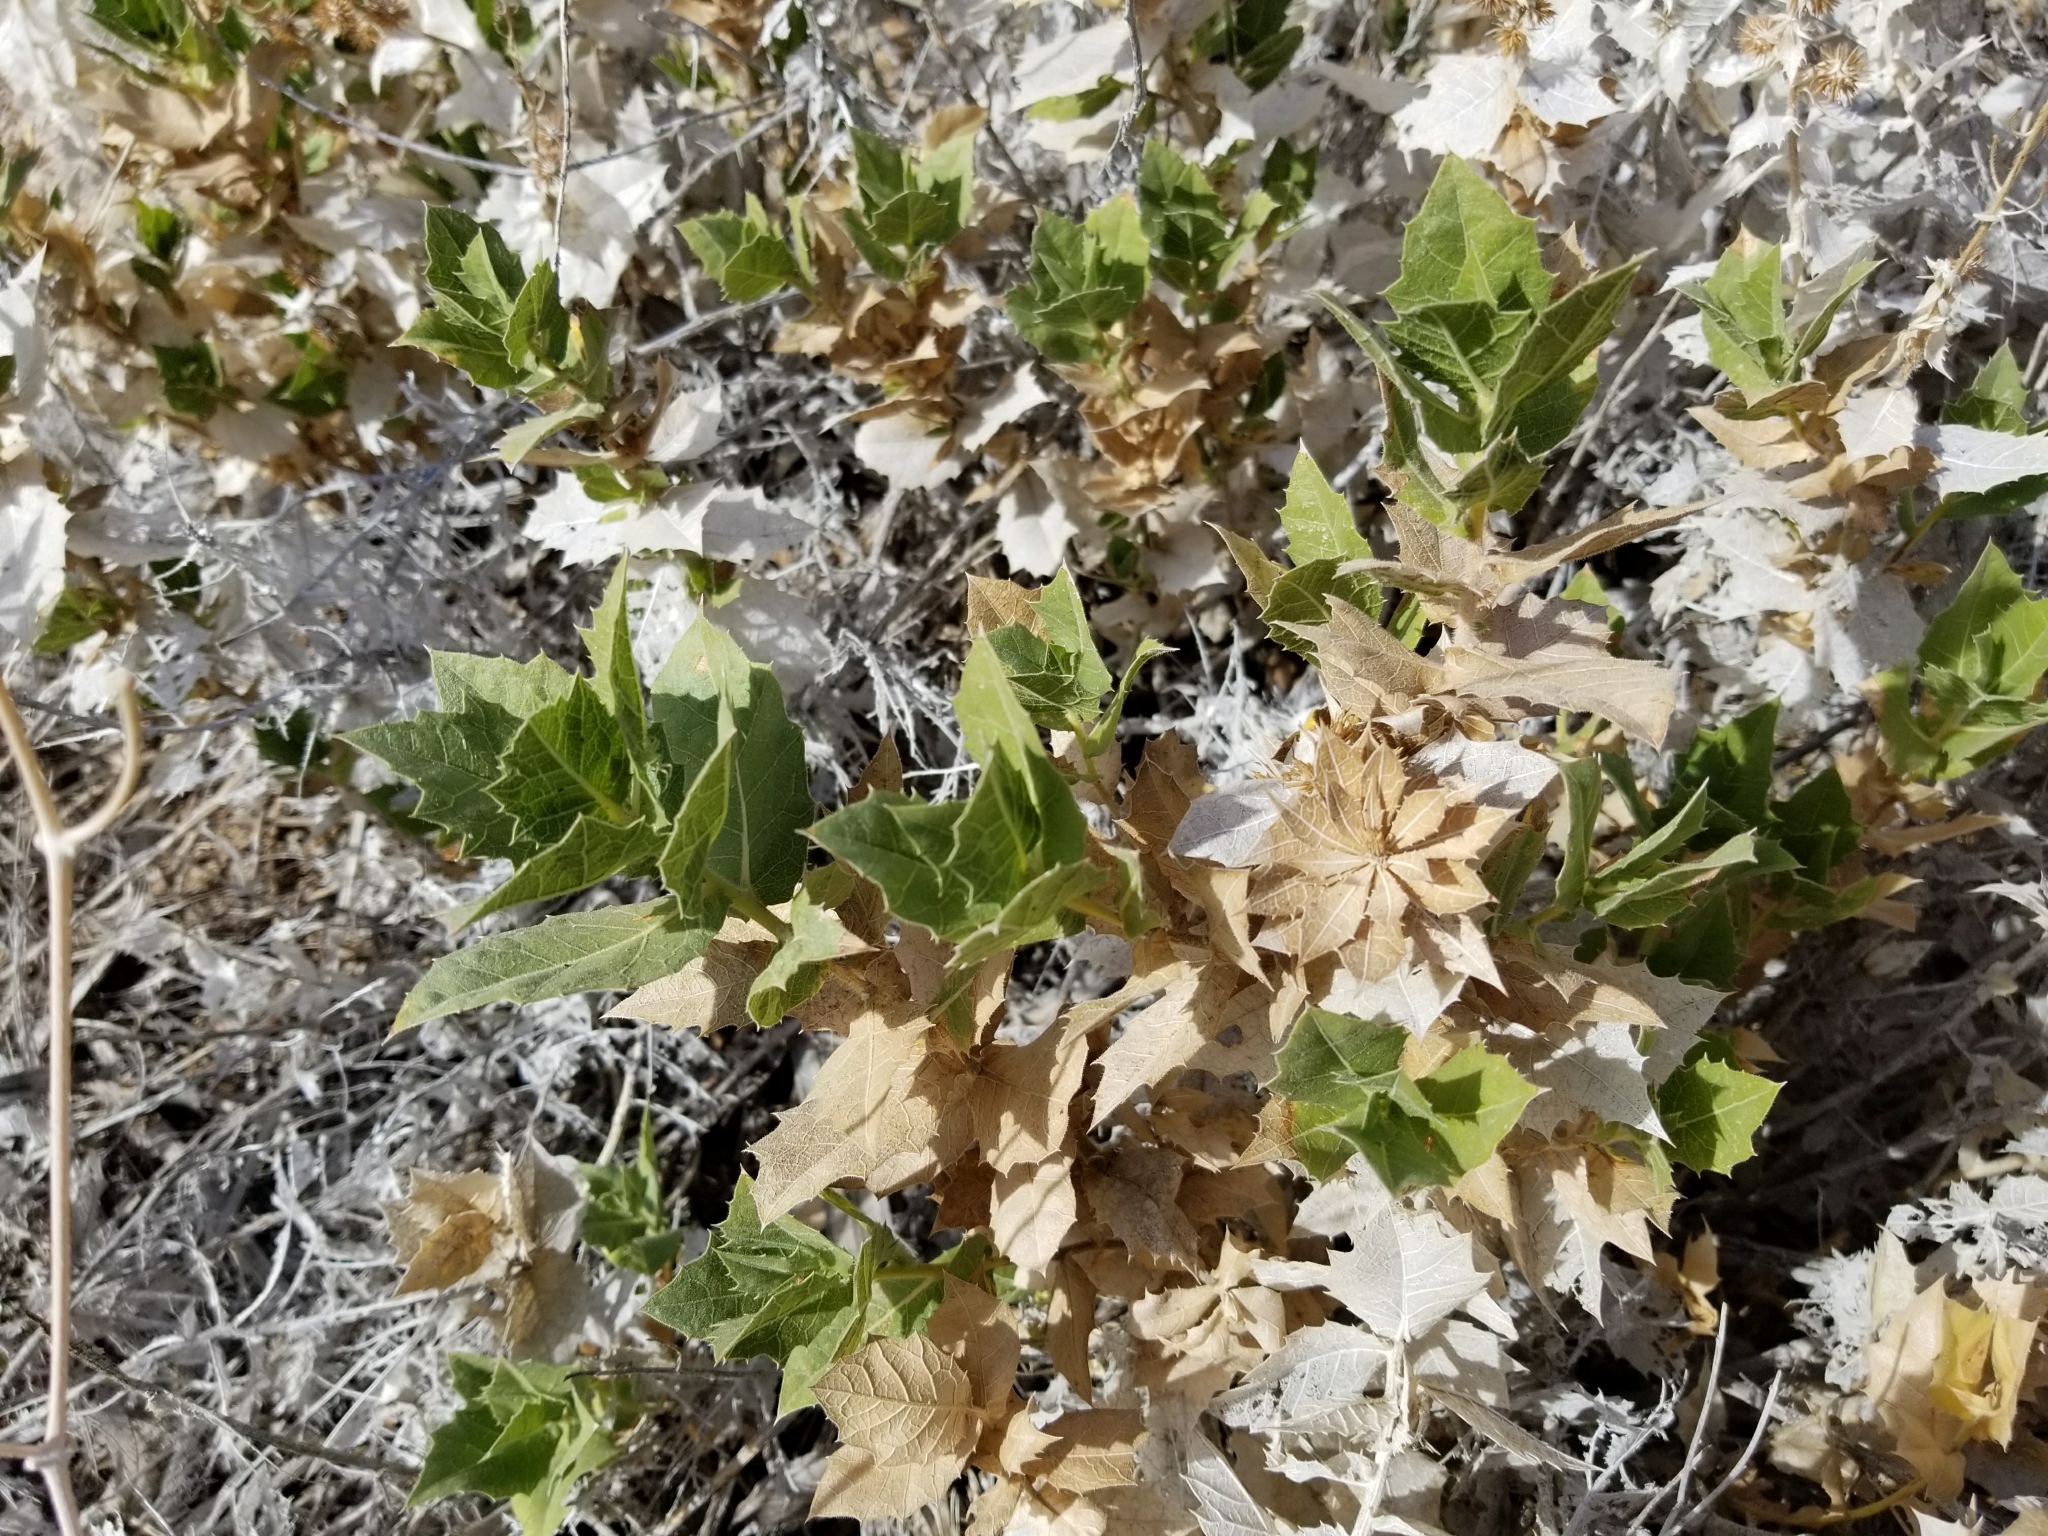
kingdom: Plantae
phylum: Tracheophyta
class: Magnoliopsida
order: Asterales
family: Asteraceae
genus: Ambrosia
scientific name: Ambrosia ilicifolia
